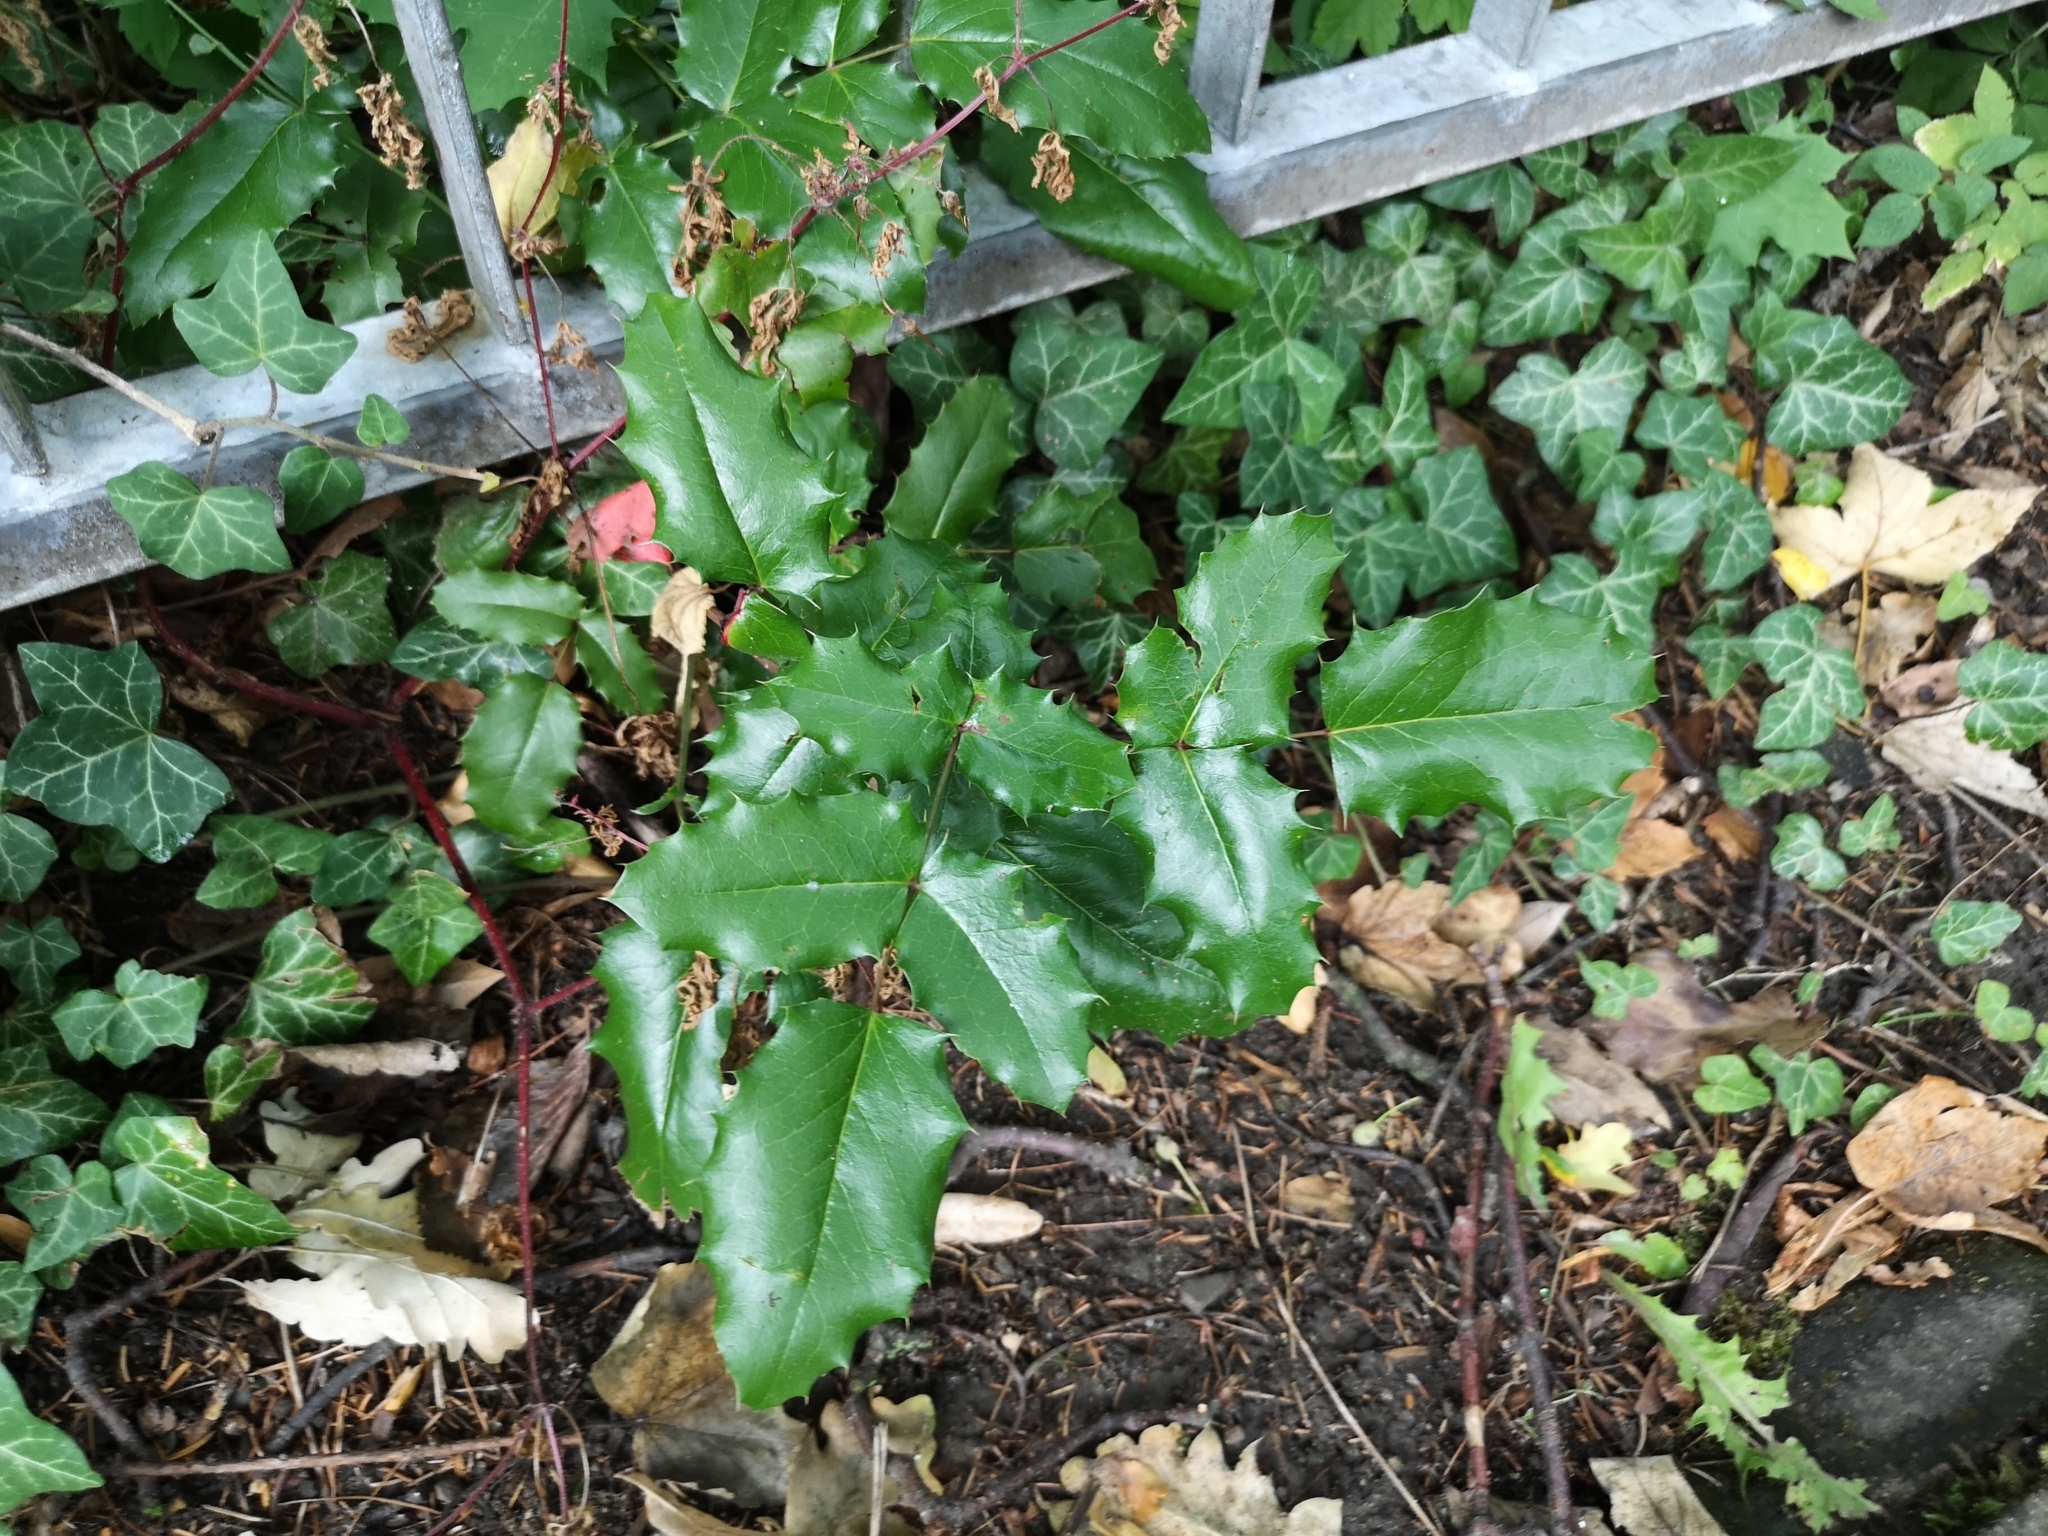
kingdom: Plantae
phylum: Tracheophyta
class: Magnoliopsida
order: Ranunculales
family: Berberidaceae
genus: Mahonia
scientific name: Mahonia aquifolium
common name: Oregon-grape
